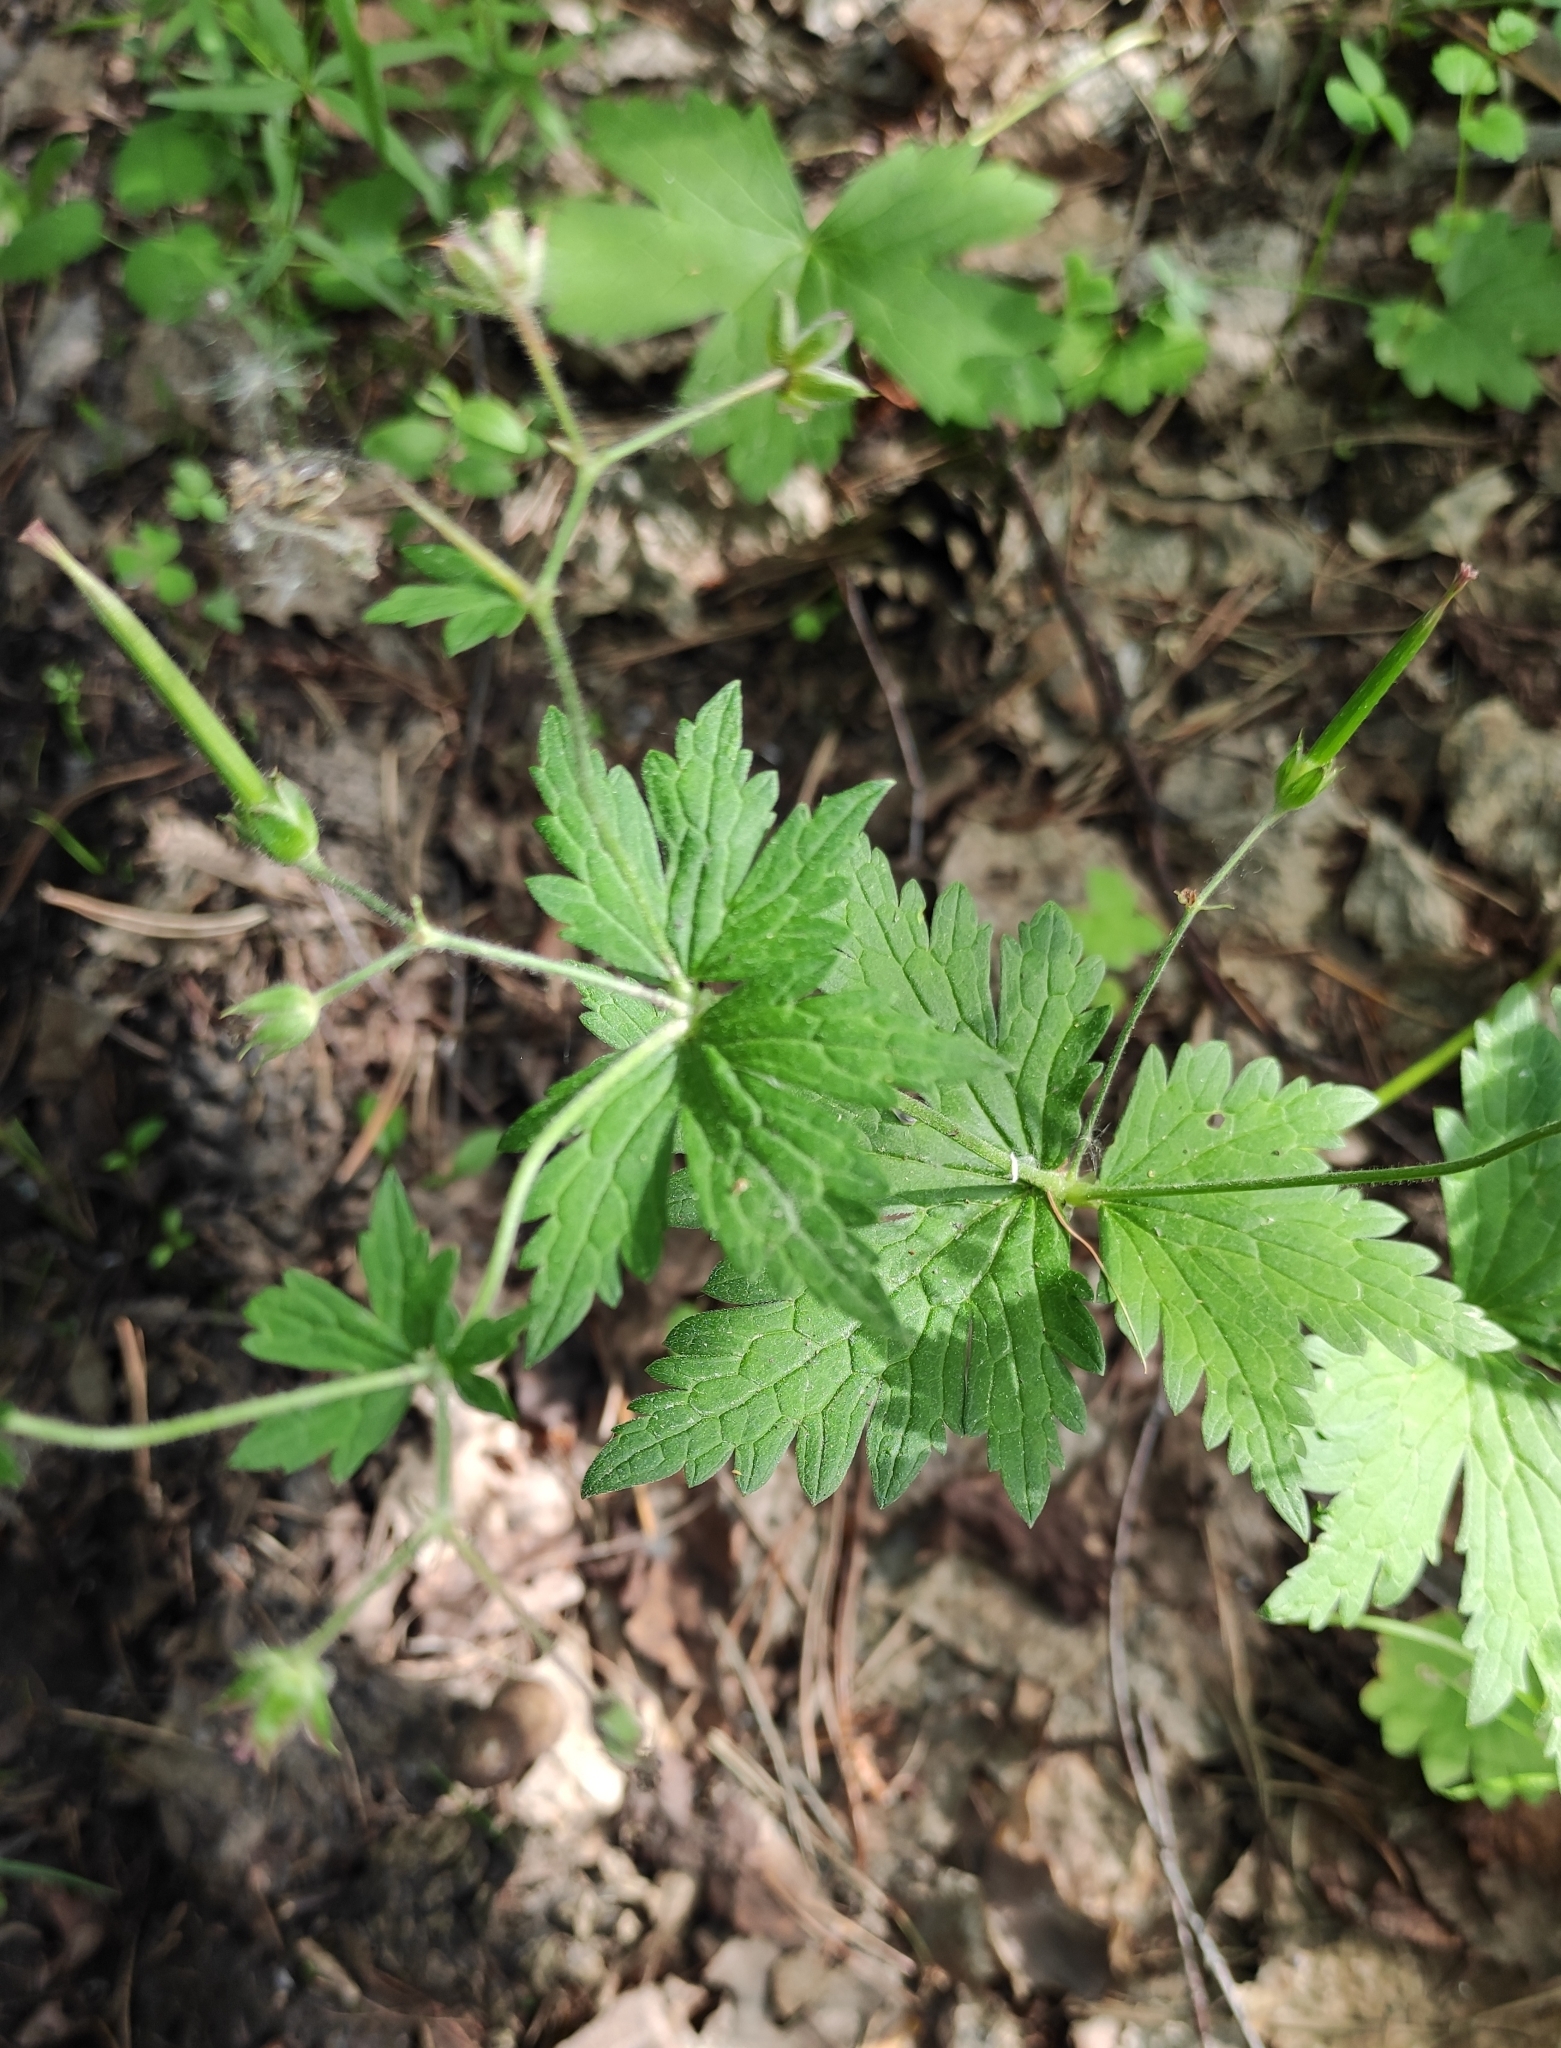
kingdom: Plantae
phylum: Tracheophyta
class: Magnoliopsida
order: Geraniales
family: Geraniaceae
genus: Geranium
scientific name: Geranium sylvaticum
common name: Wood crane's-bill
